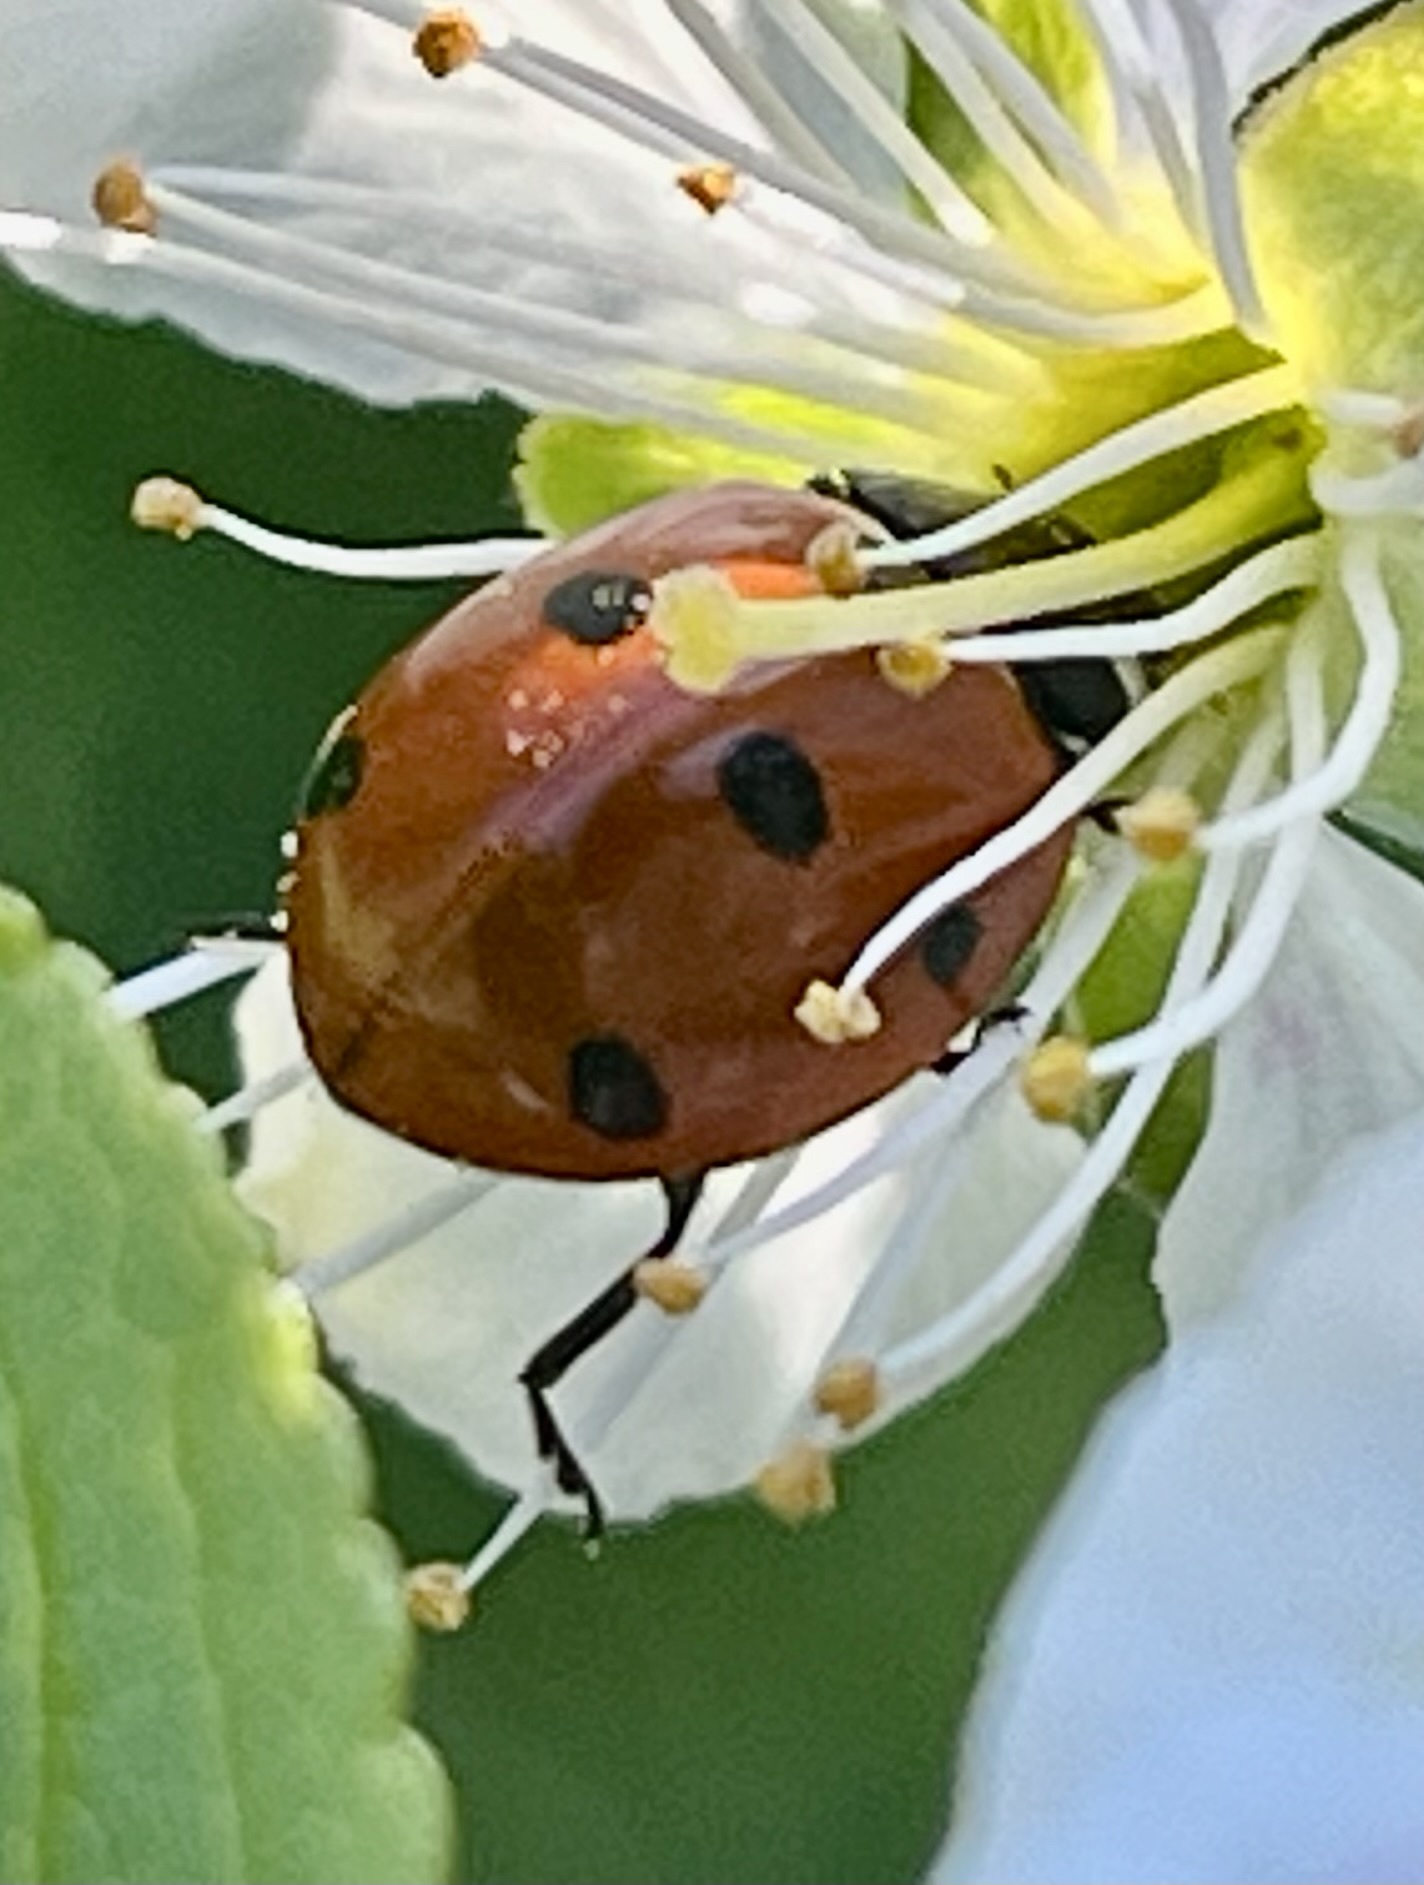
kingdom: Animalia
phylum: Arthropoda
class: Insecta
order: Coleoptera
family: Coccinellidae
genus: Coccinella
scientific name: Coccinella septempunctata
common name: Sevenspotted lady beetle
